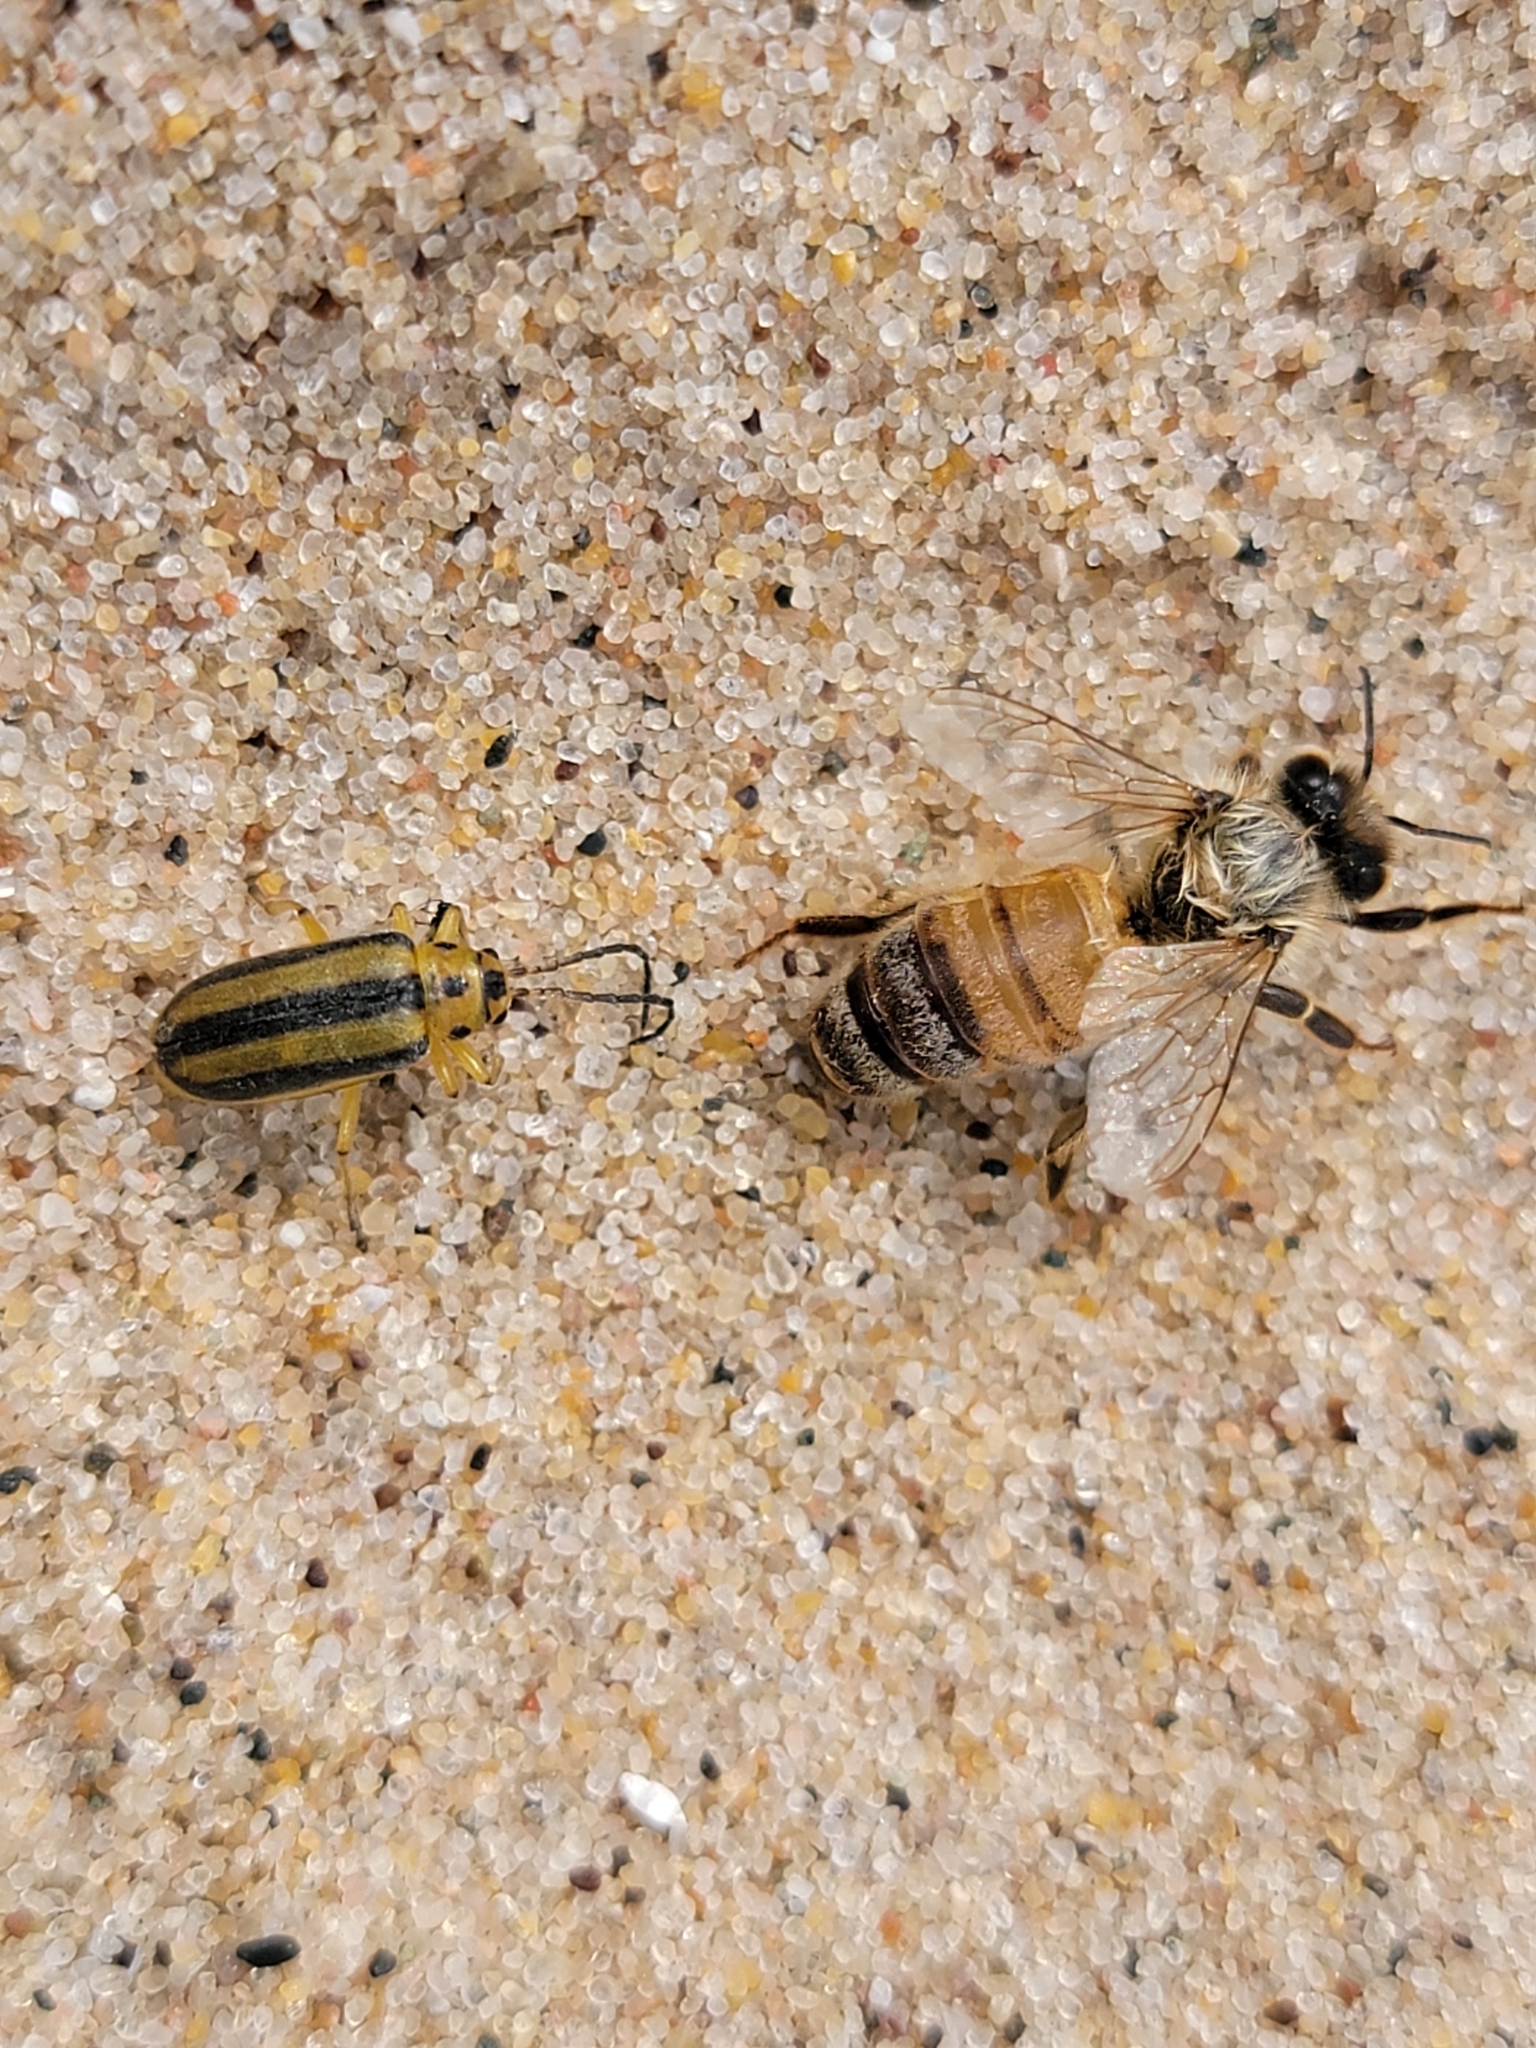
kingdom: Animalia
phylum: Arthropoda
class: Insecta
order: Hymenoptera
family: Apidae
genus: Apis
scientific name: Apis mellifera
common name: Honey bee
